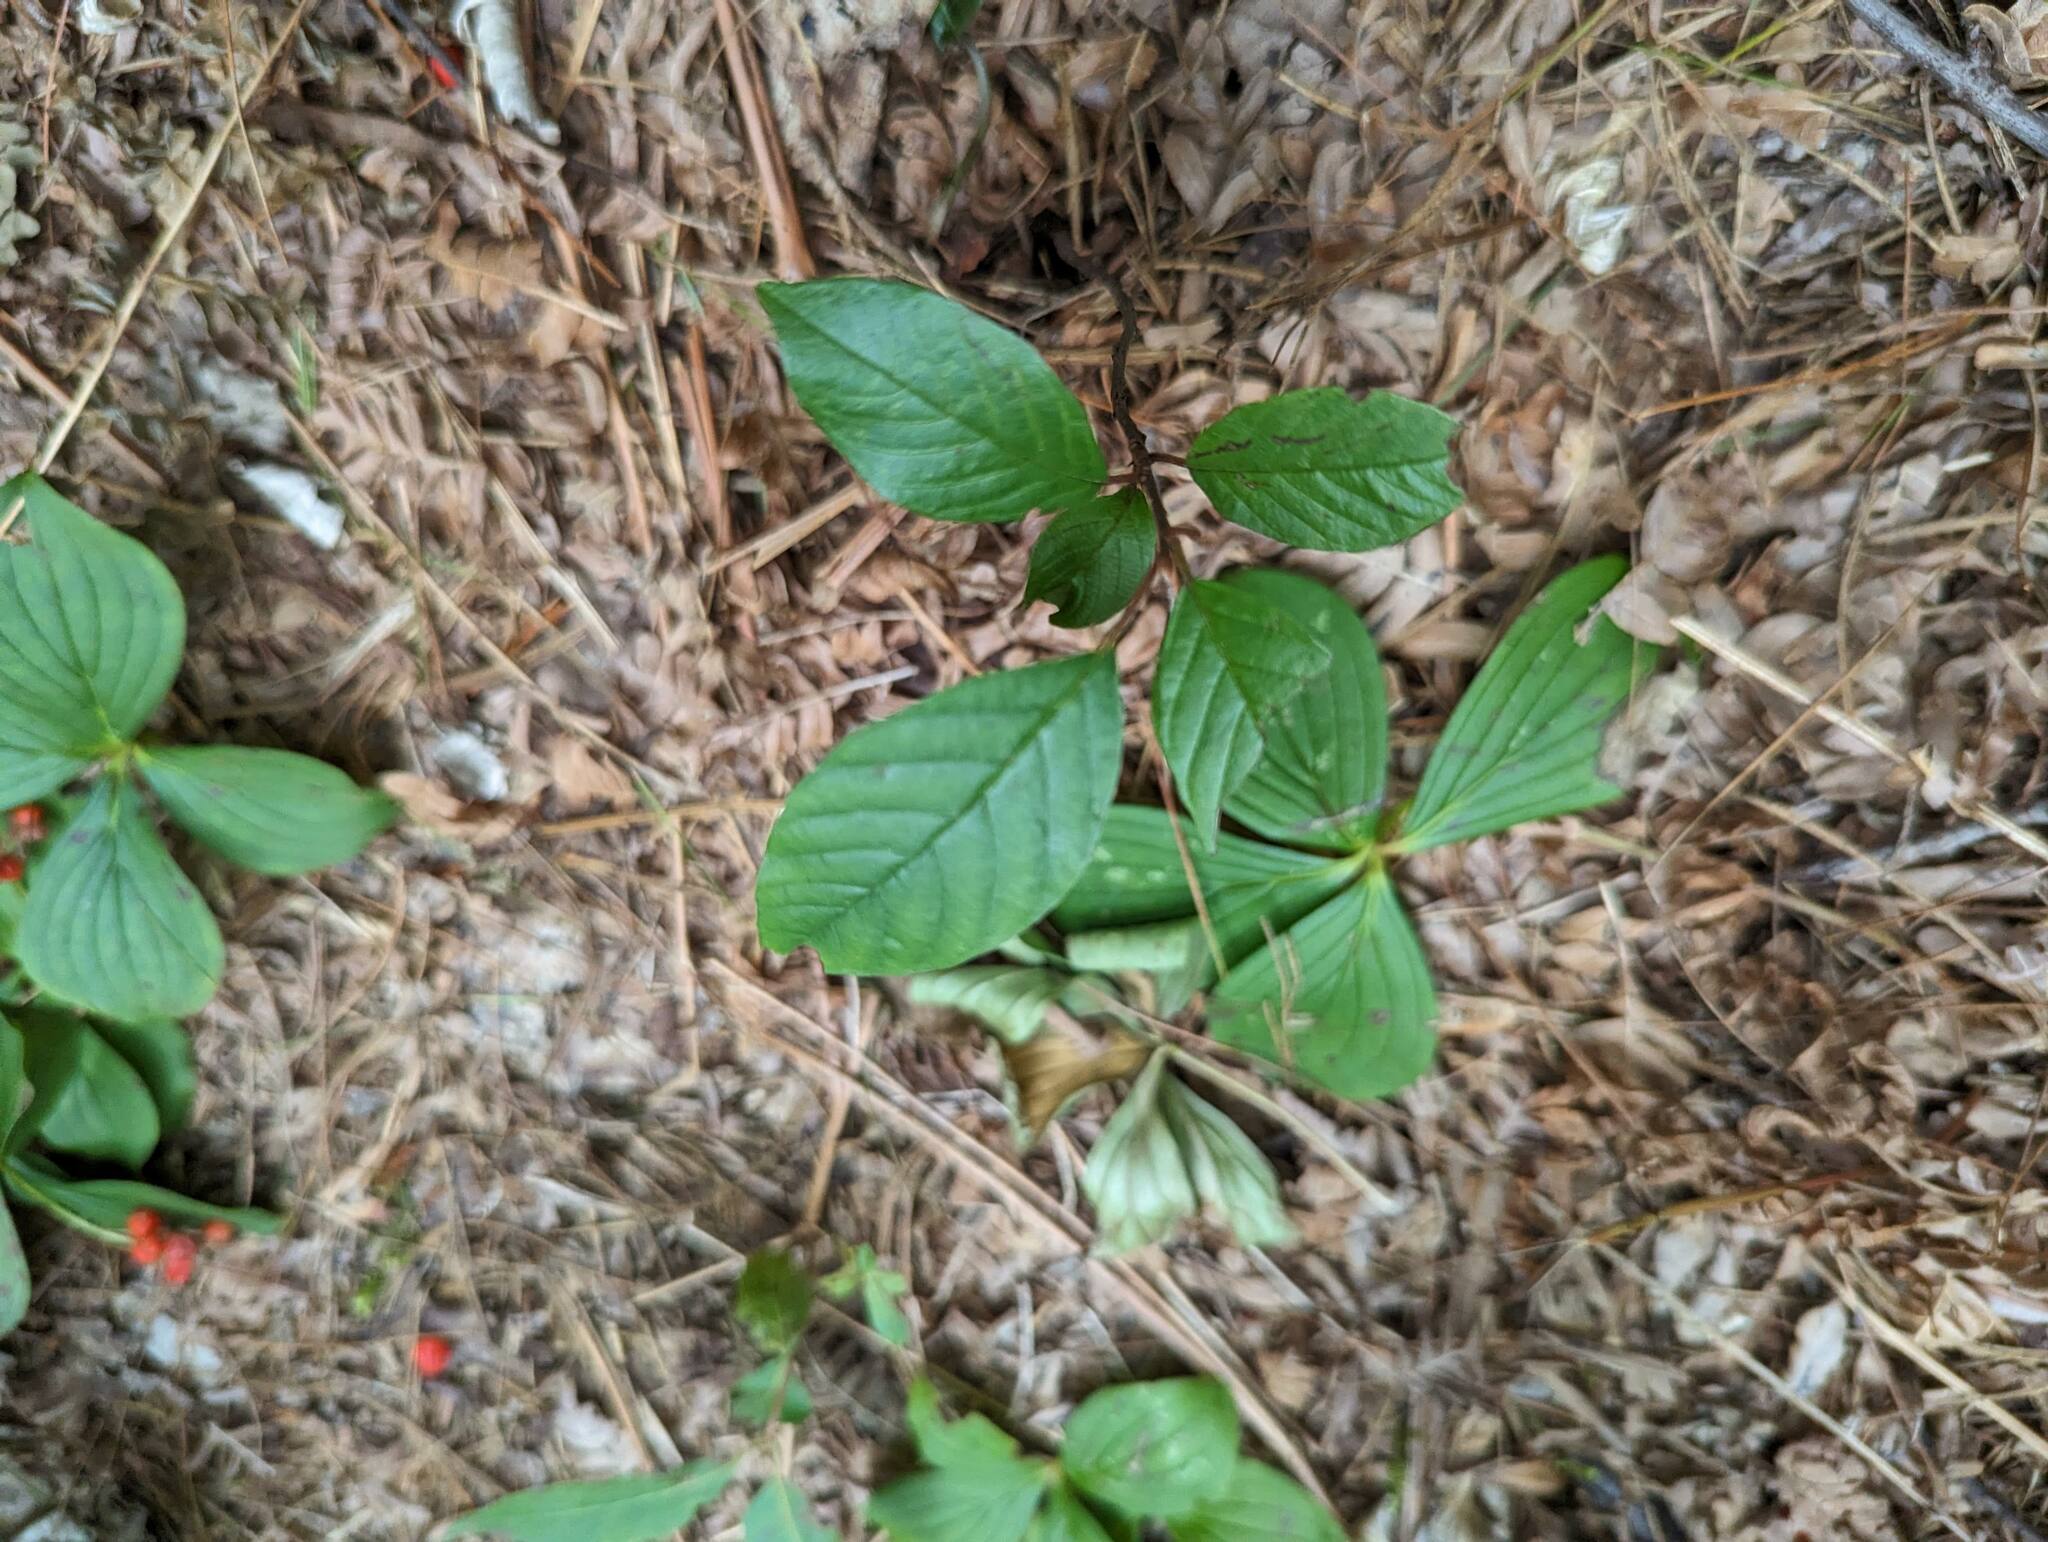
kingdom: Plantae
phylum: Tracheophyta
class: Magnoliopsida
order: Rosales
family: Rhamnaceae
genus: Frangula
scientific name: Frangula alnus
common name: Alder buckthorn
